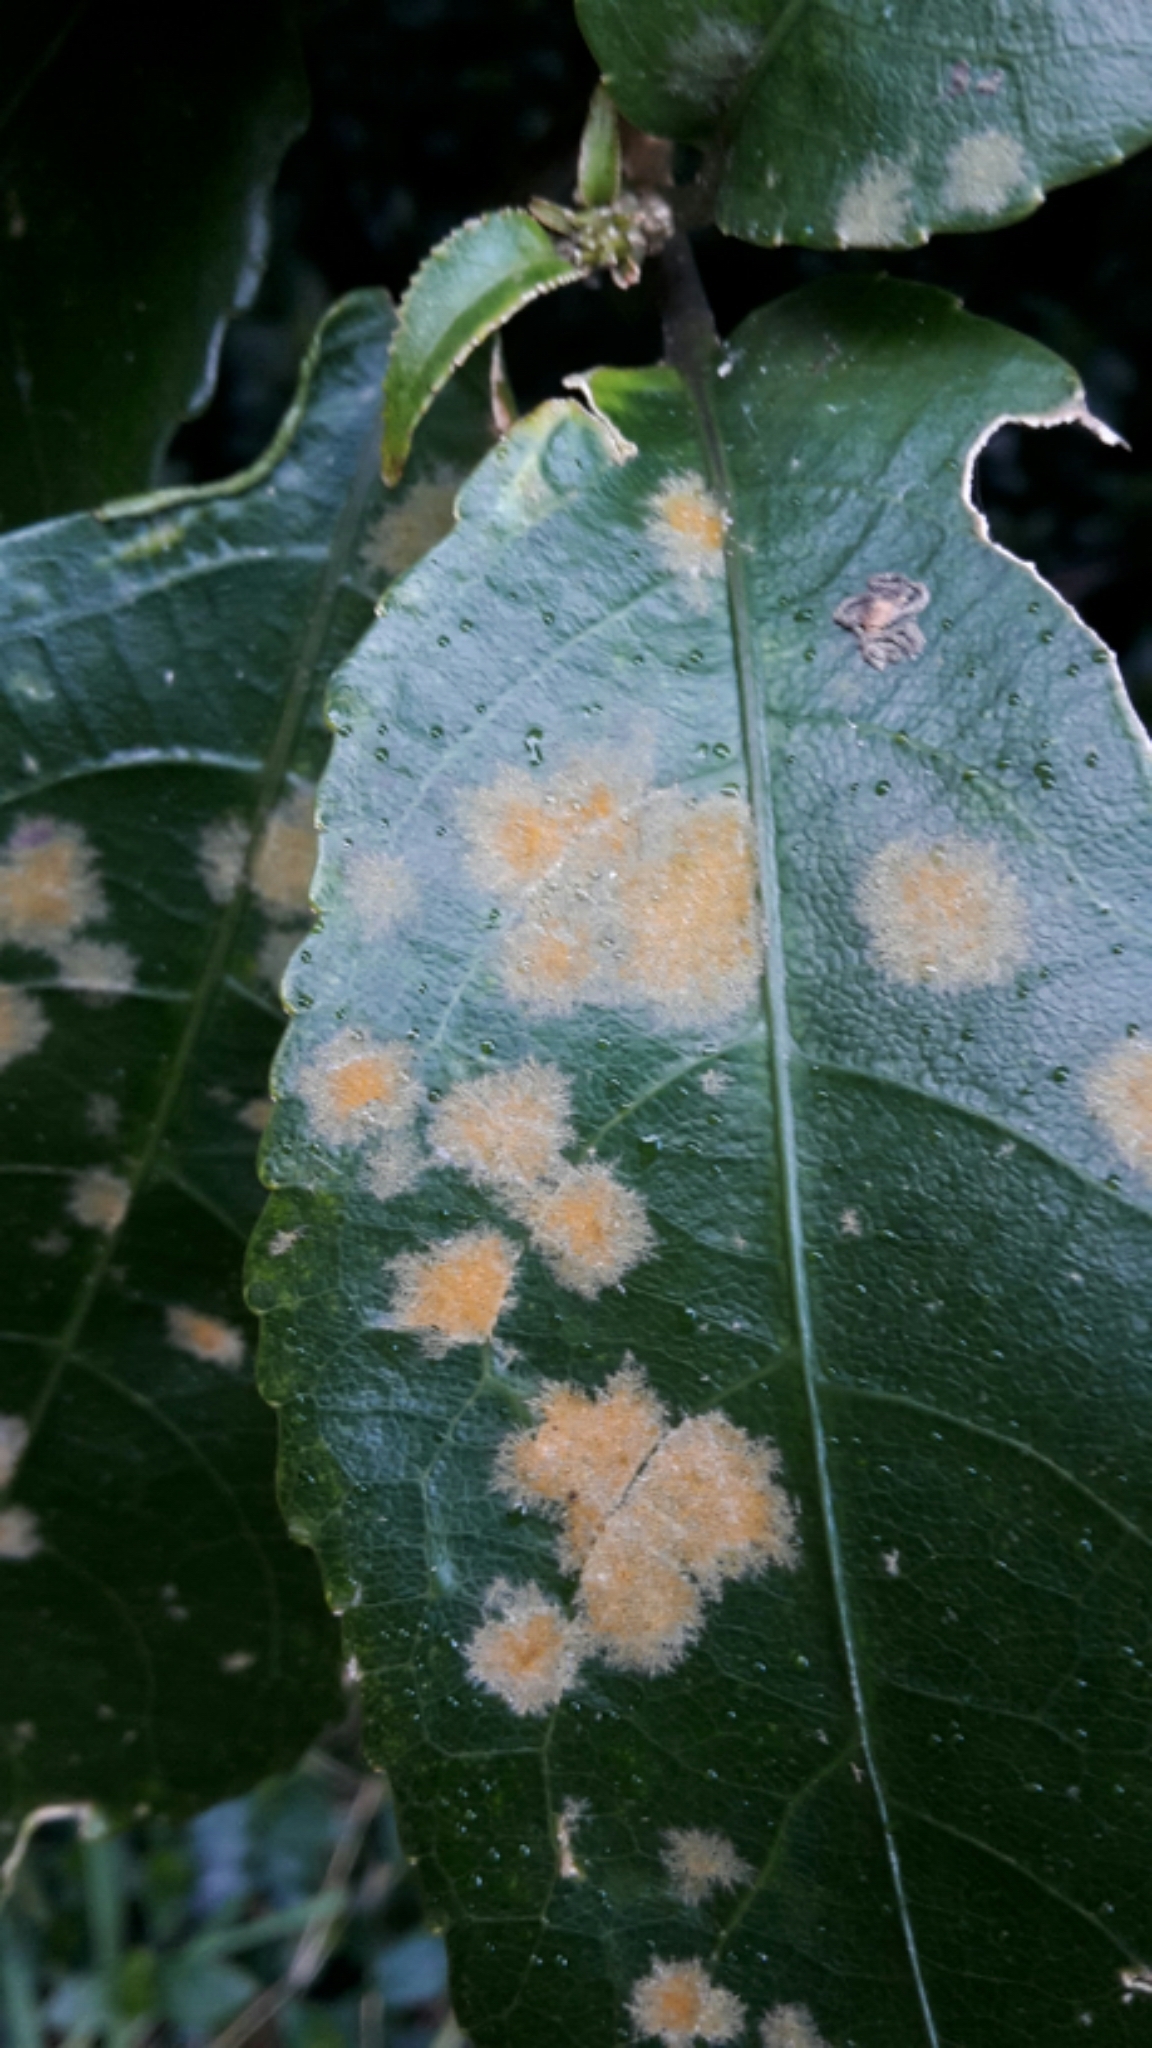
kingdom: Plantae
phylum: Chlorophyta
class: Ulvophyceae
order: Trentepohliales
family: Trentepohliaceae
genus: Cephaleuros
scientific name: Cephaleuros
